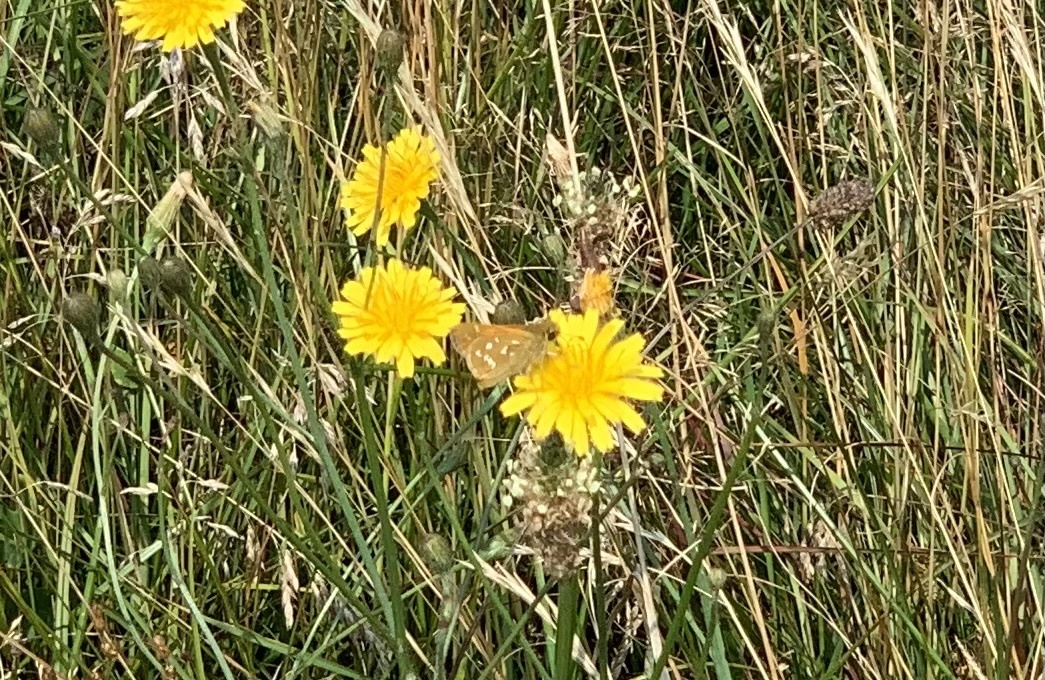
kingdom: Animalia
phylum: Arthropoda
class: Insecta
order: Lepidoptera
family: Hesperiidae
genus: Hesperia
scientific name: Hesperia comma
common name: Common branded skipper
